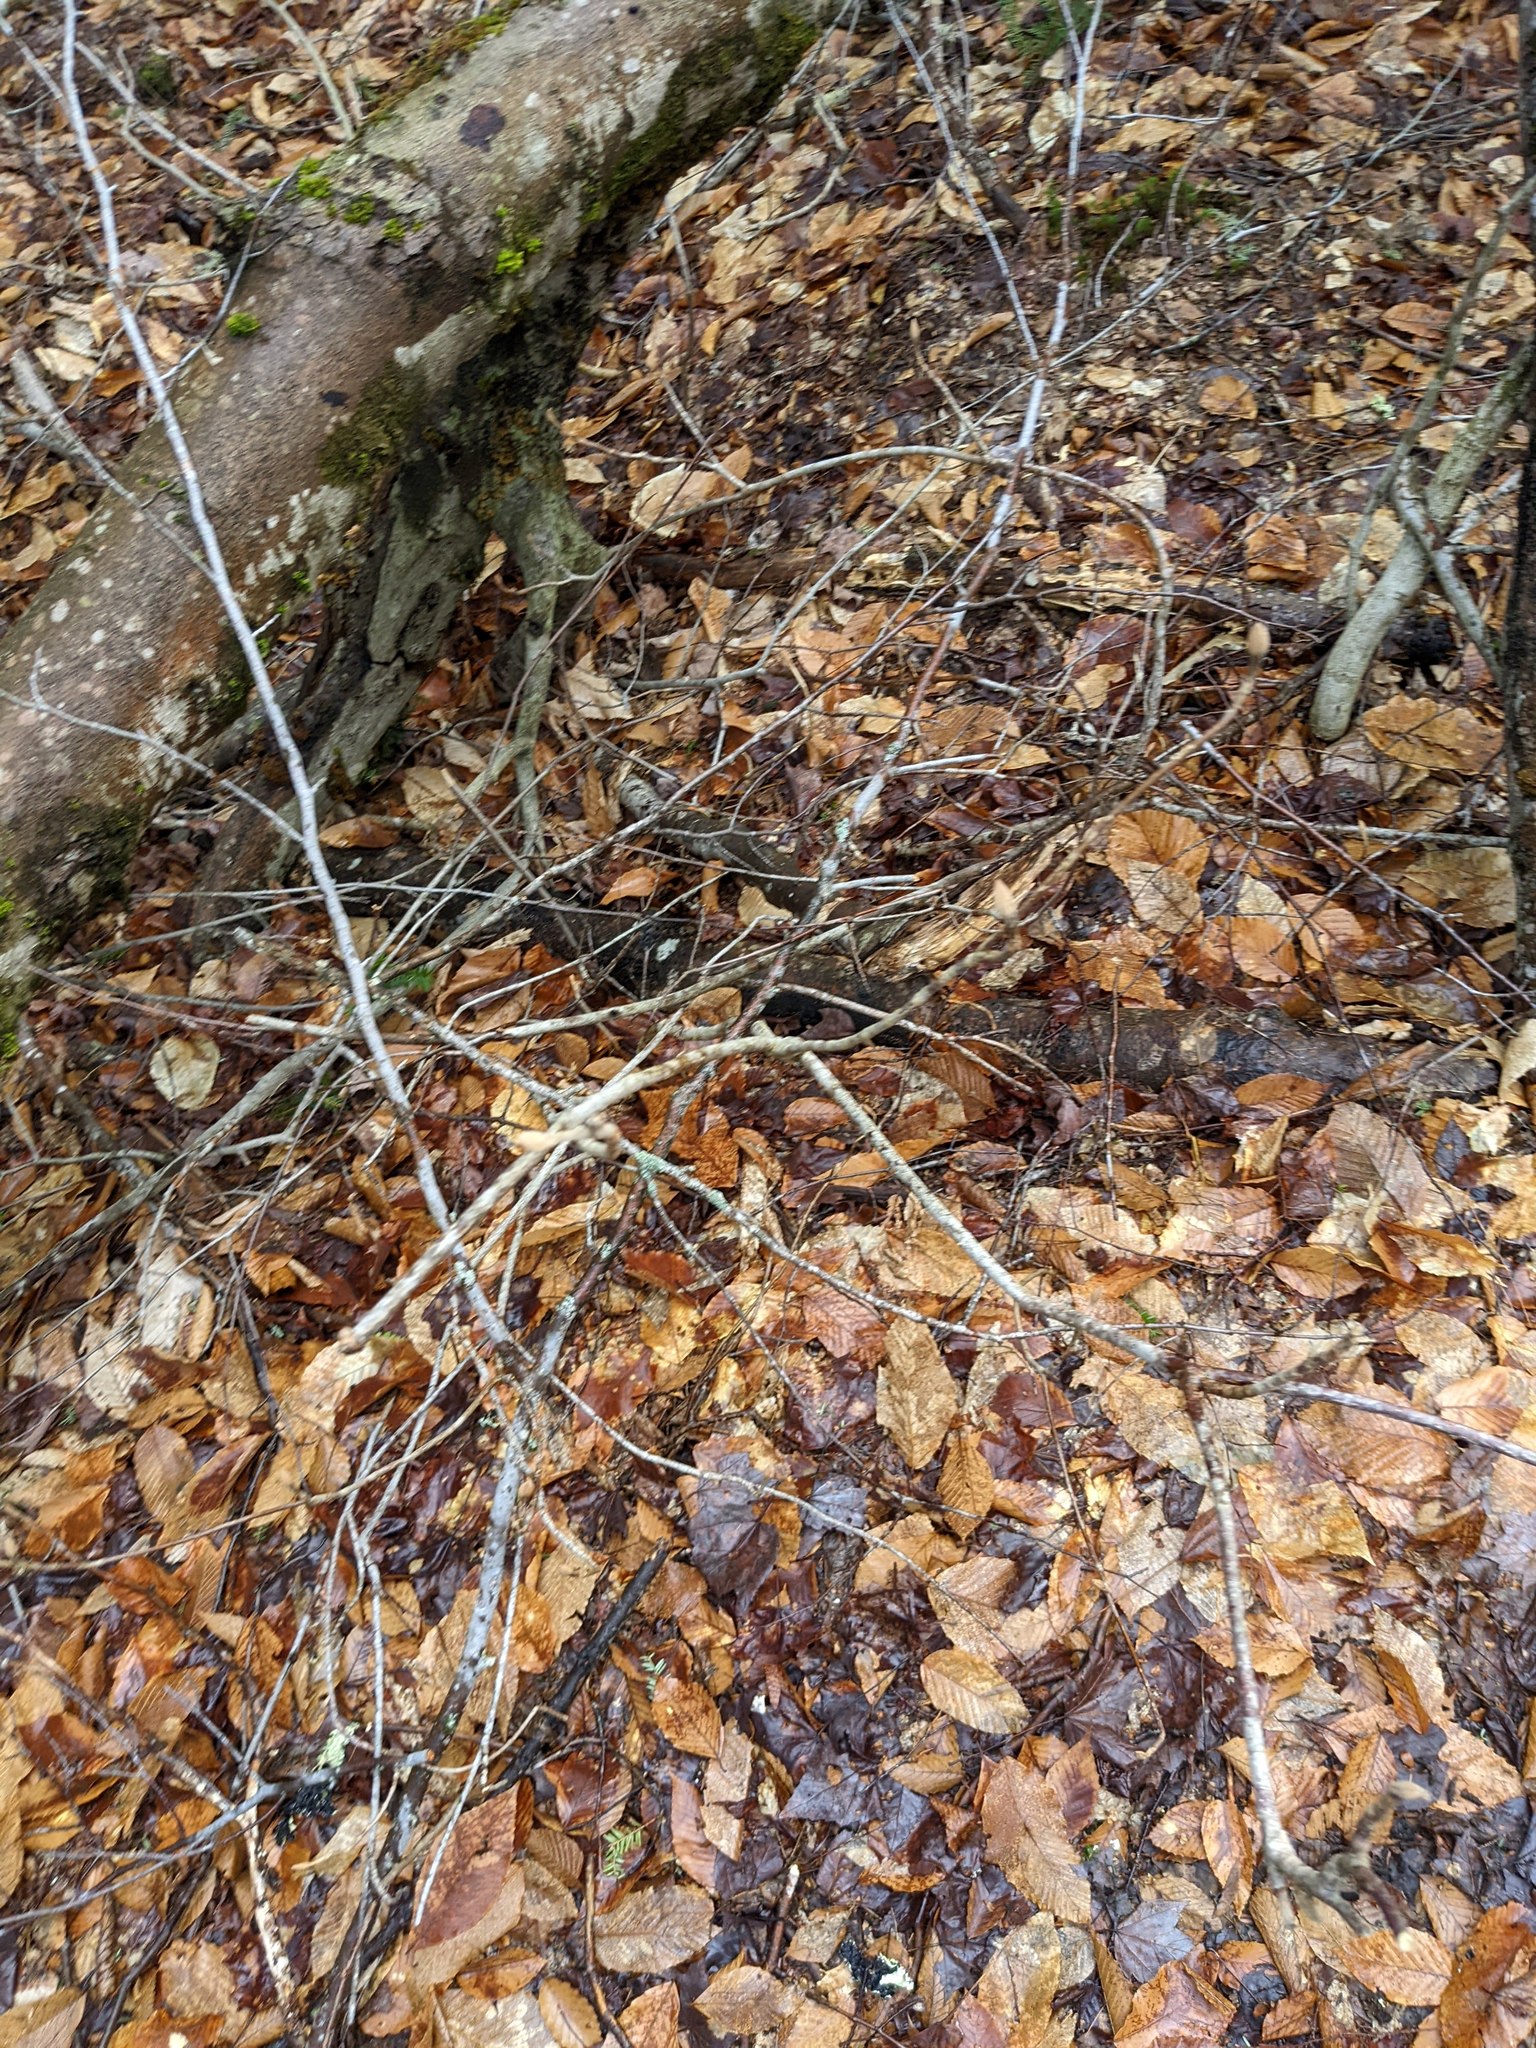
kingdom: Plantae
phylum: Tracheophyta
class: Magnoliopsida
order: Dipsacales
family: Viburnaceae
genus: Viburnum
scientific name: Viburnum lantanoides
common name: Hobblebush
